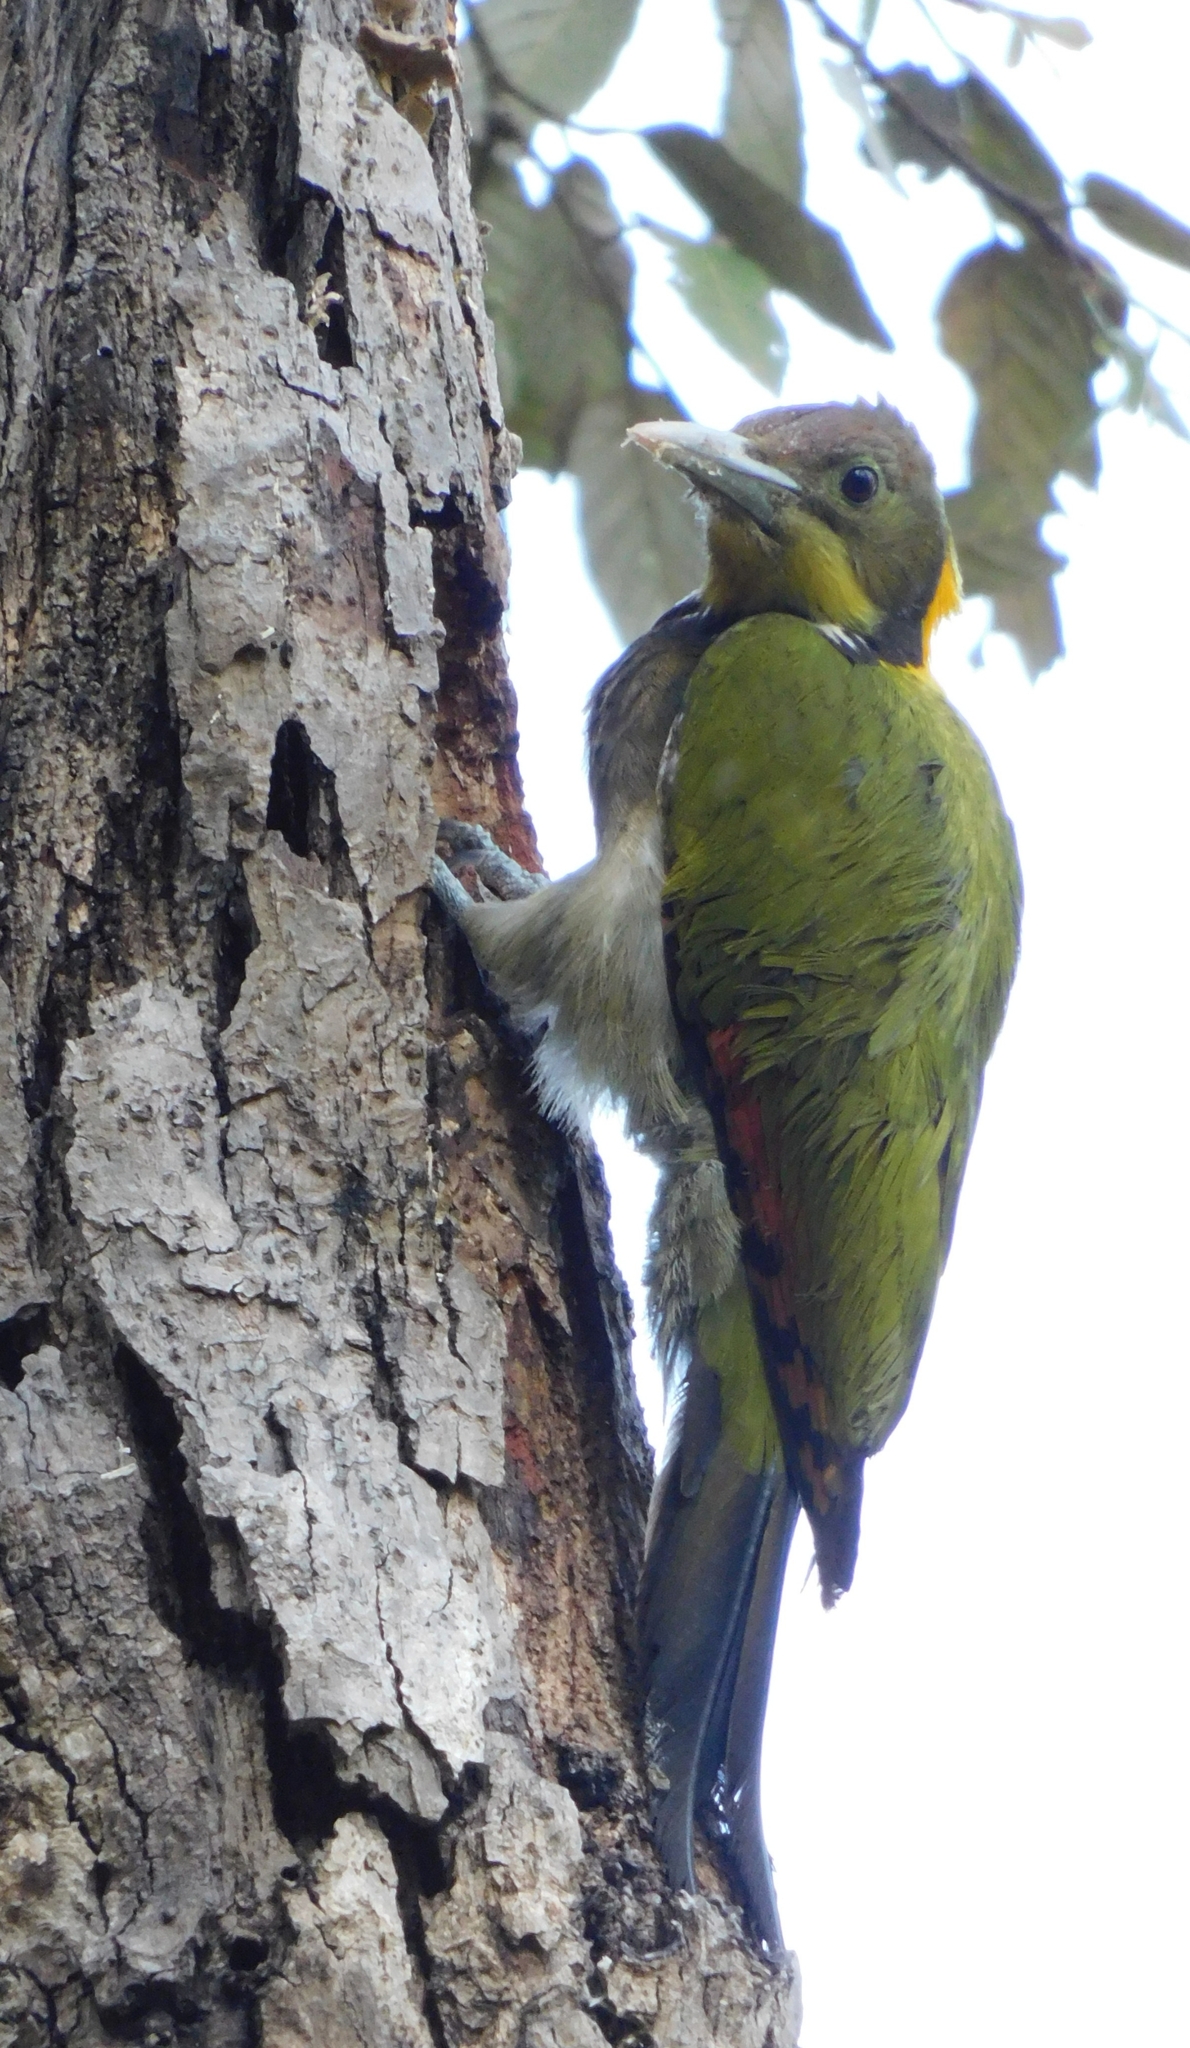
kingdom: Animalia
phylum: Chordata
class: Aves
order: Piciformes
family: Picidae
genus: Chrysophlegma
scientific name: Chrysophlegma flavinucha
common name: Greater yellownape
